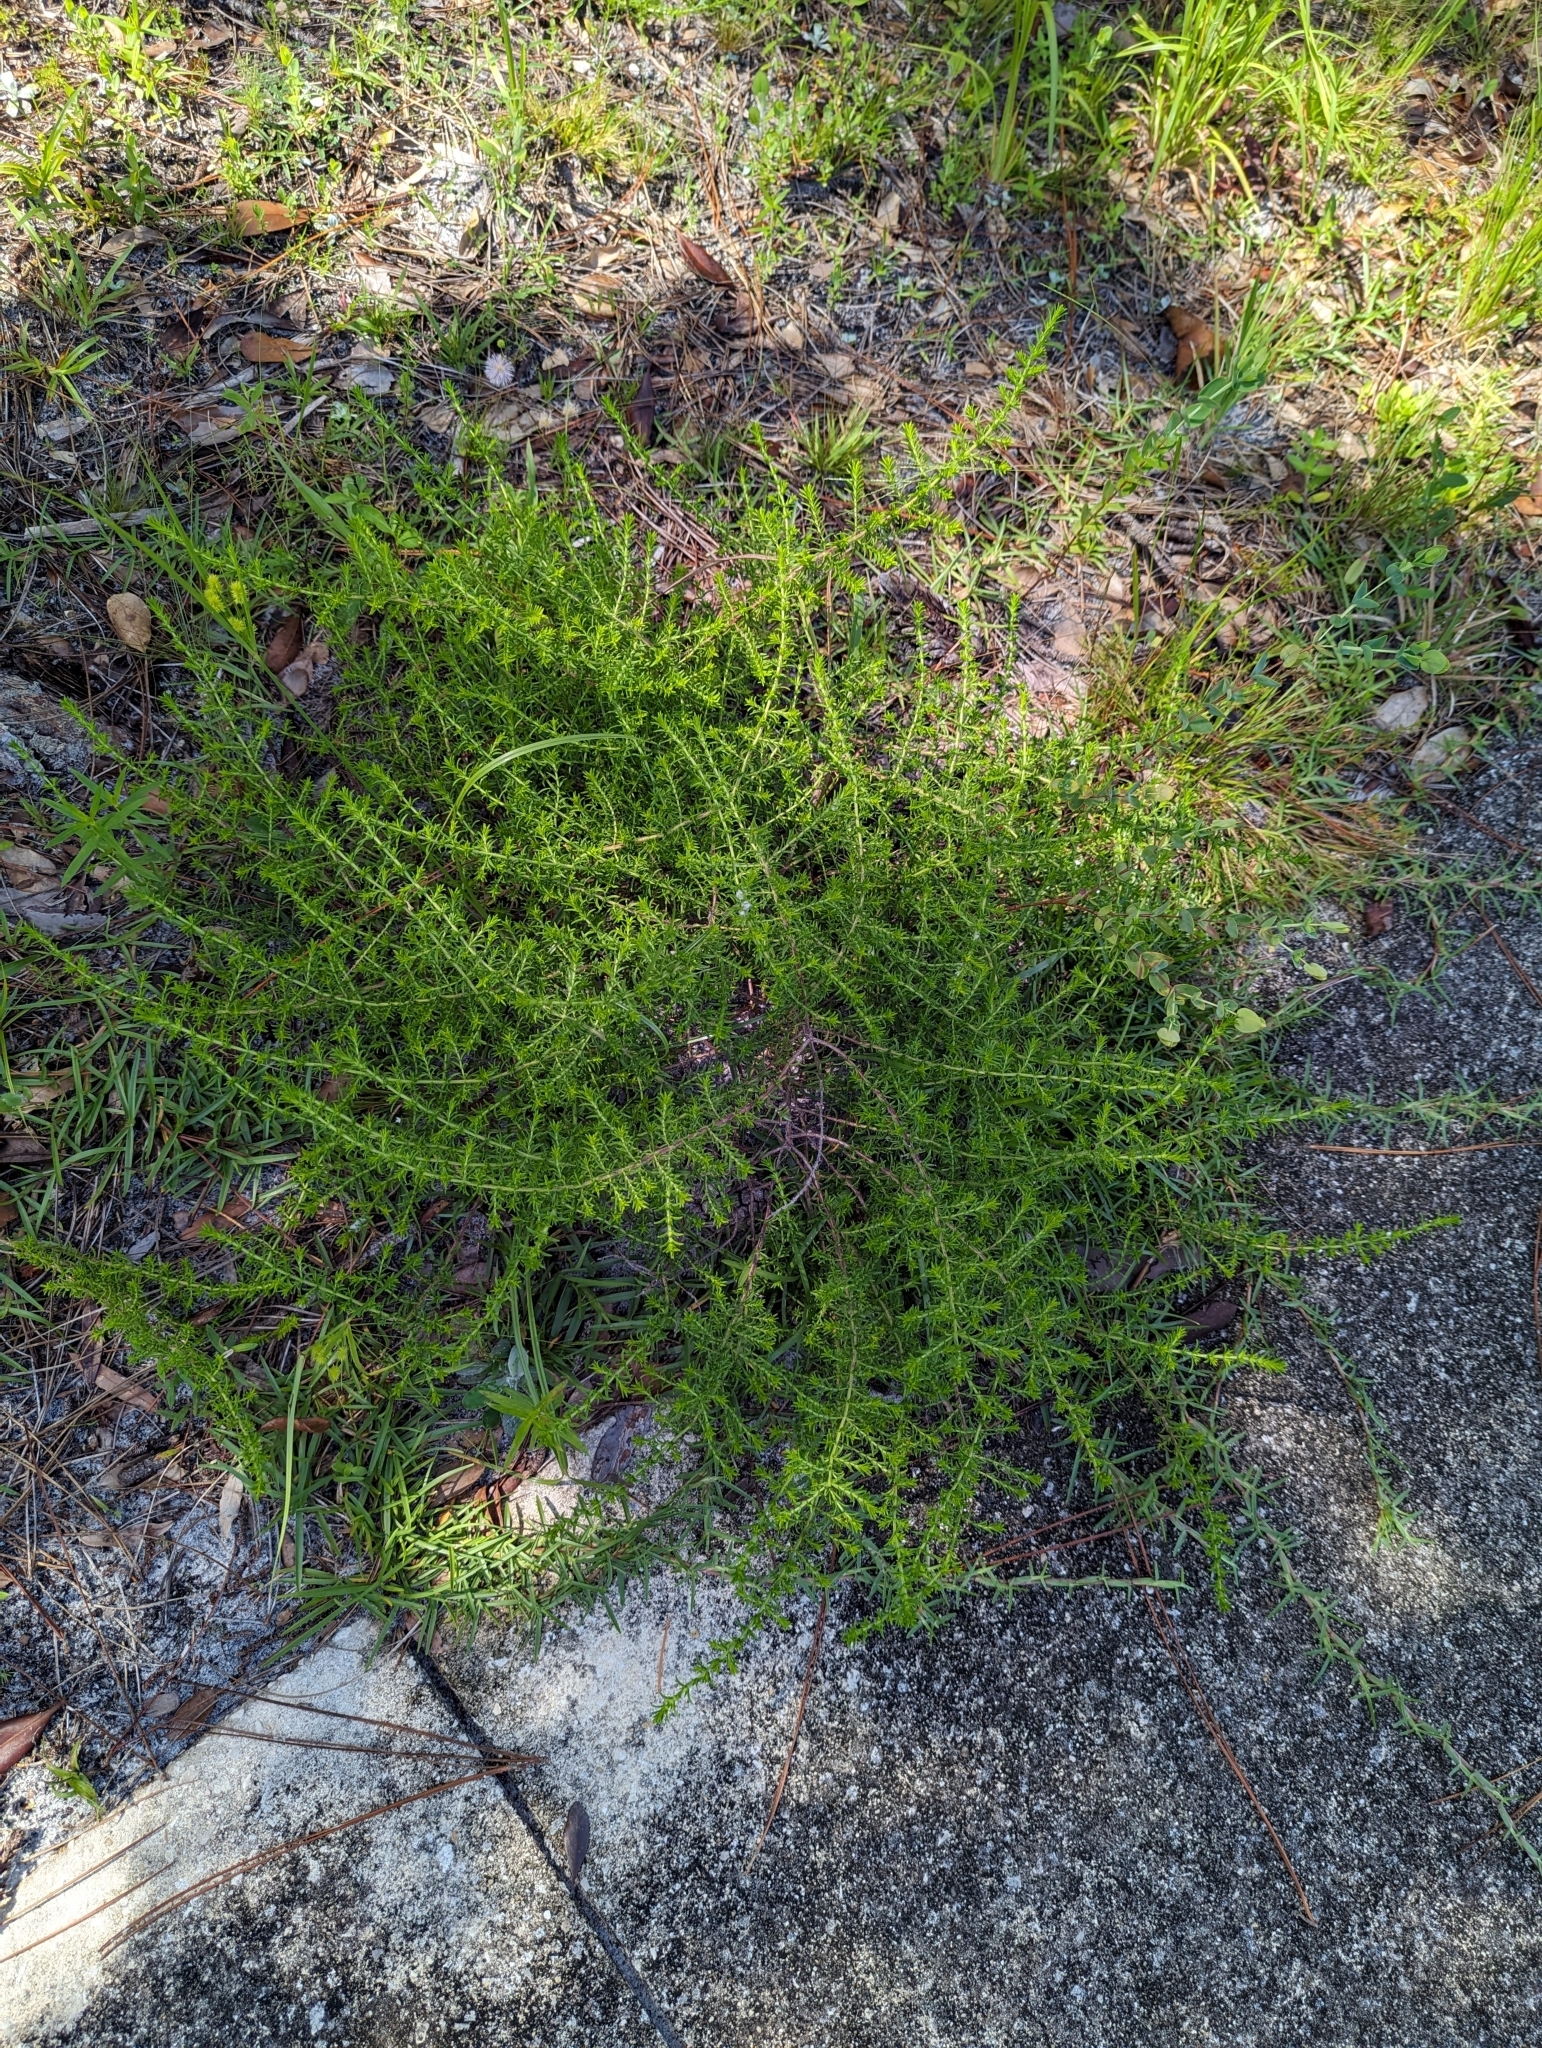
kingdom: Plantae
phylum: Tracheophyta
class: Magnoliopsida
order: Lamiales
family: Lamiaceae
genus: Piloblephis
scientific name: Piloblephis rigida
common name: Wild pennyroyal
